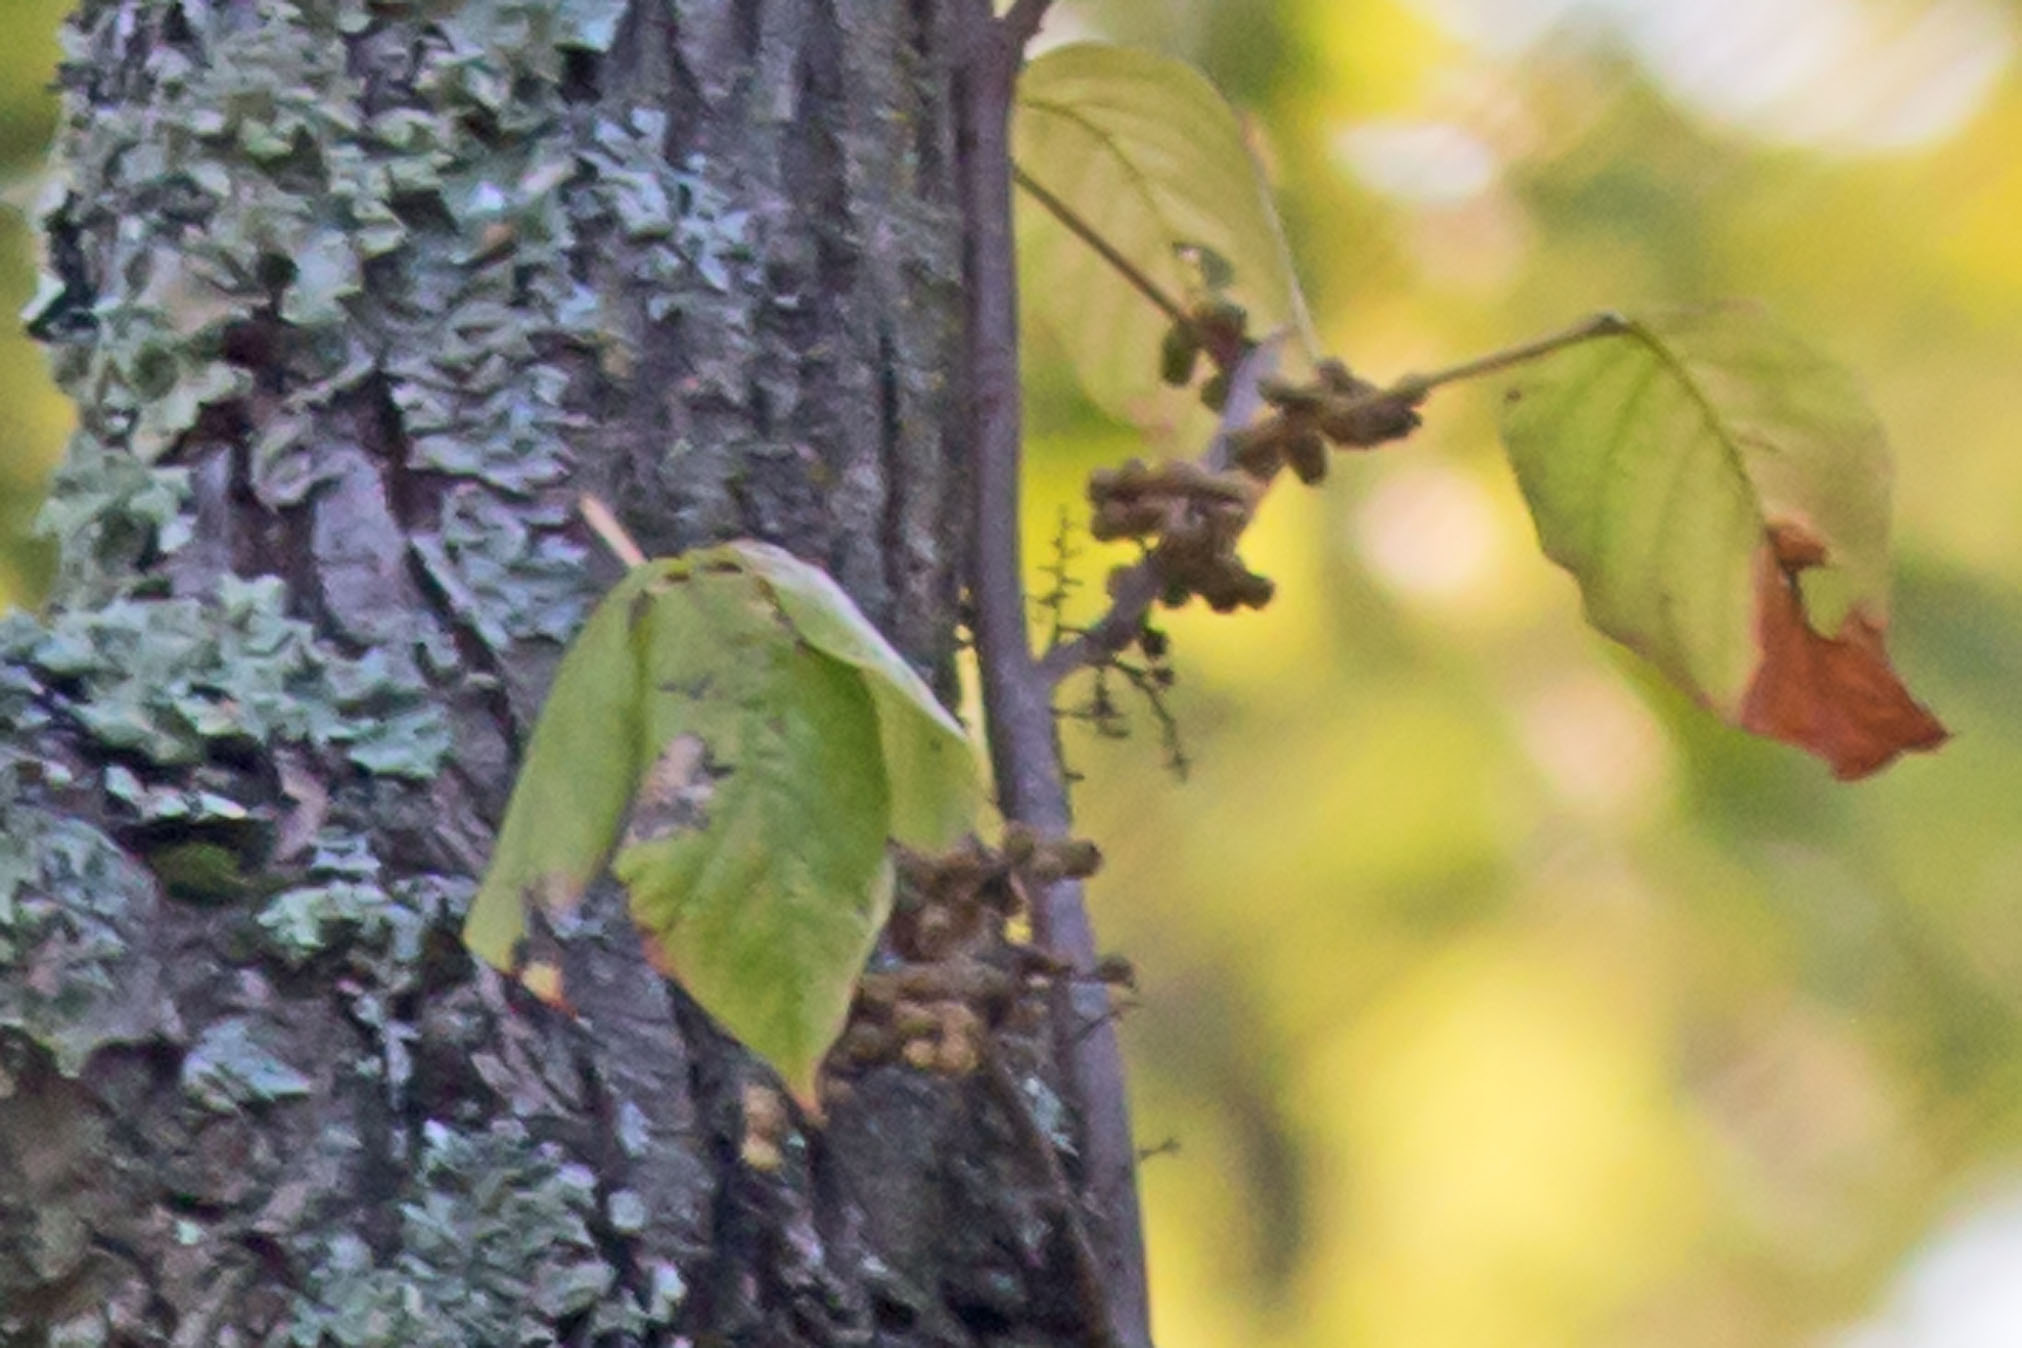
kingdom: Plantae
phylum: Tracheophyta
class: Magnoliopsida
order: Sapindales
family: Anacardiaceae
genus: Toxicodendron
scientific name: Toxicodendron radicans
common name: Poison ivy
